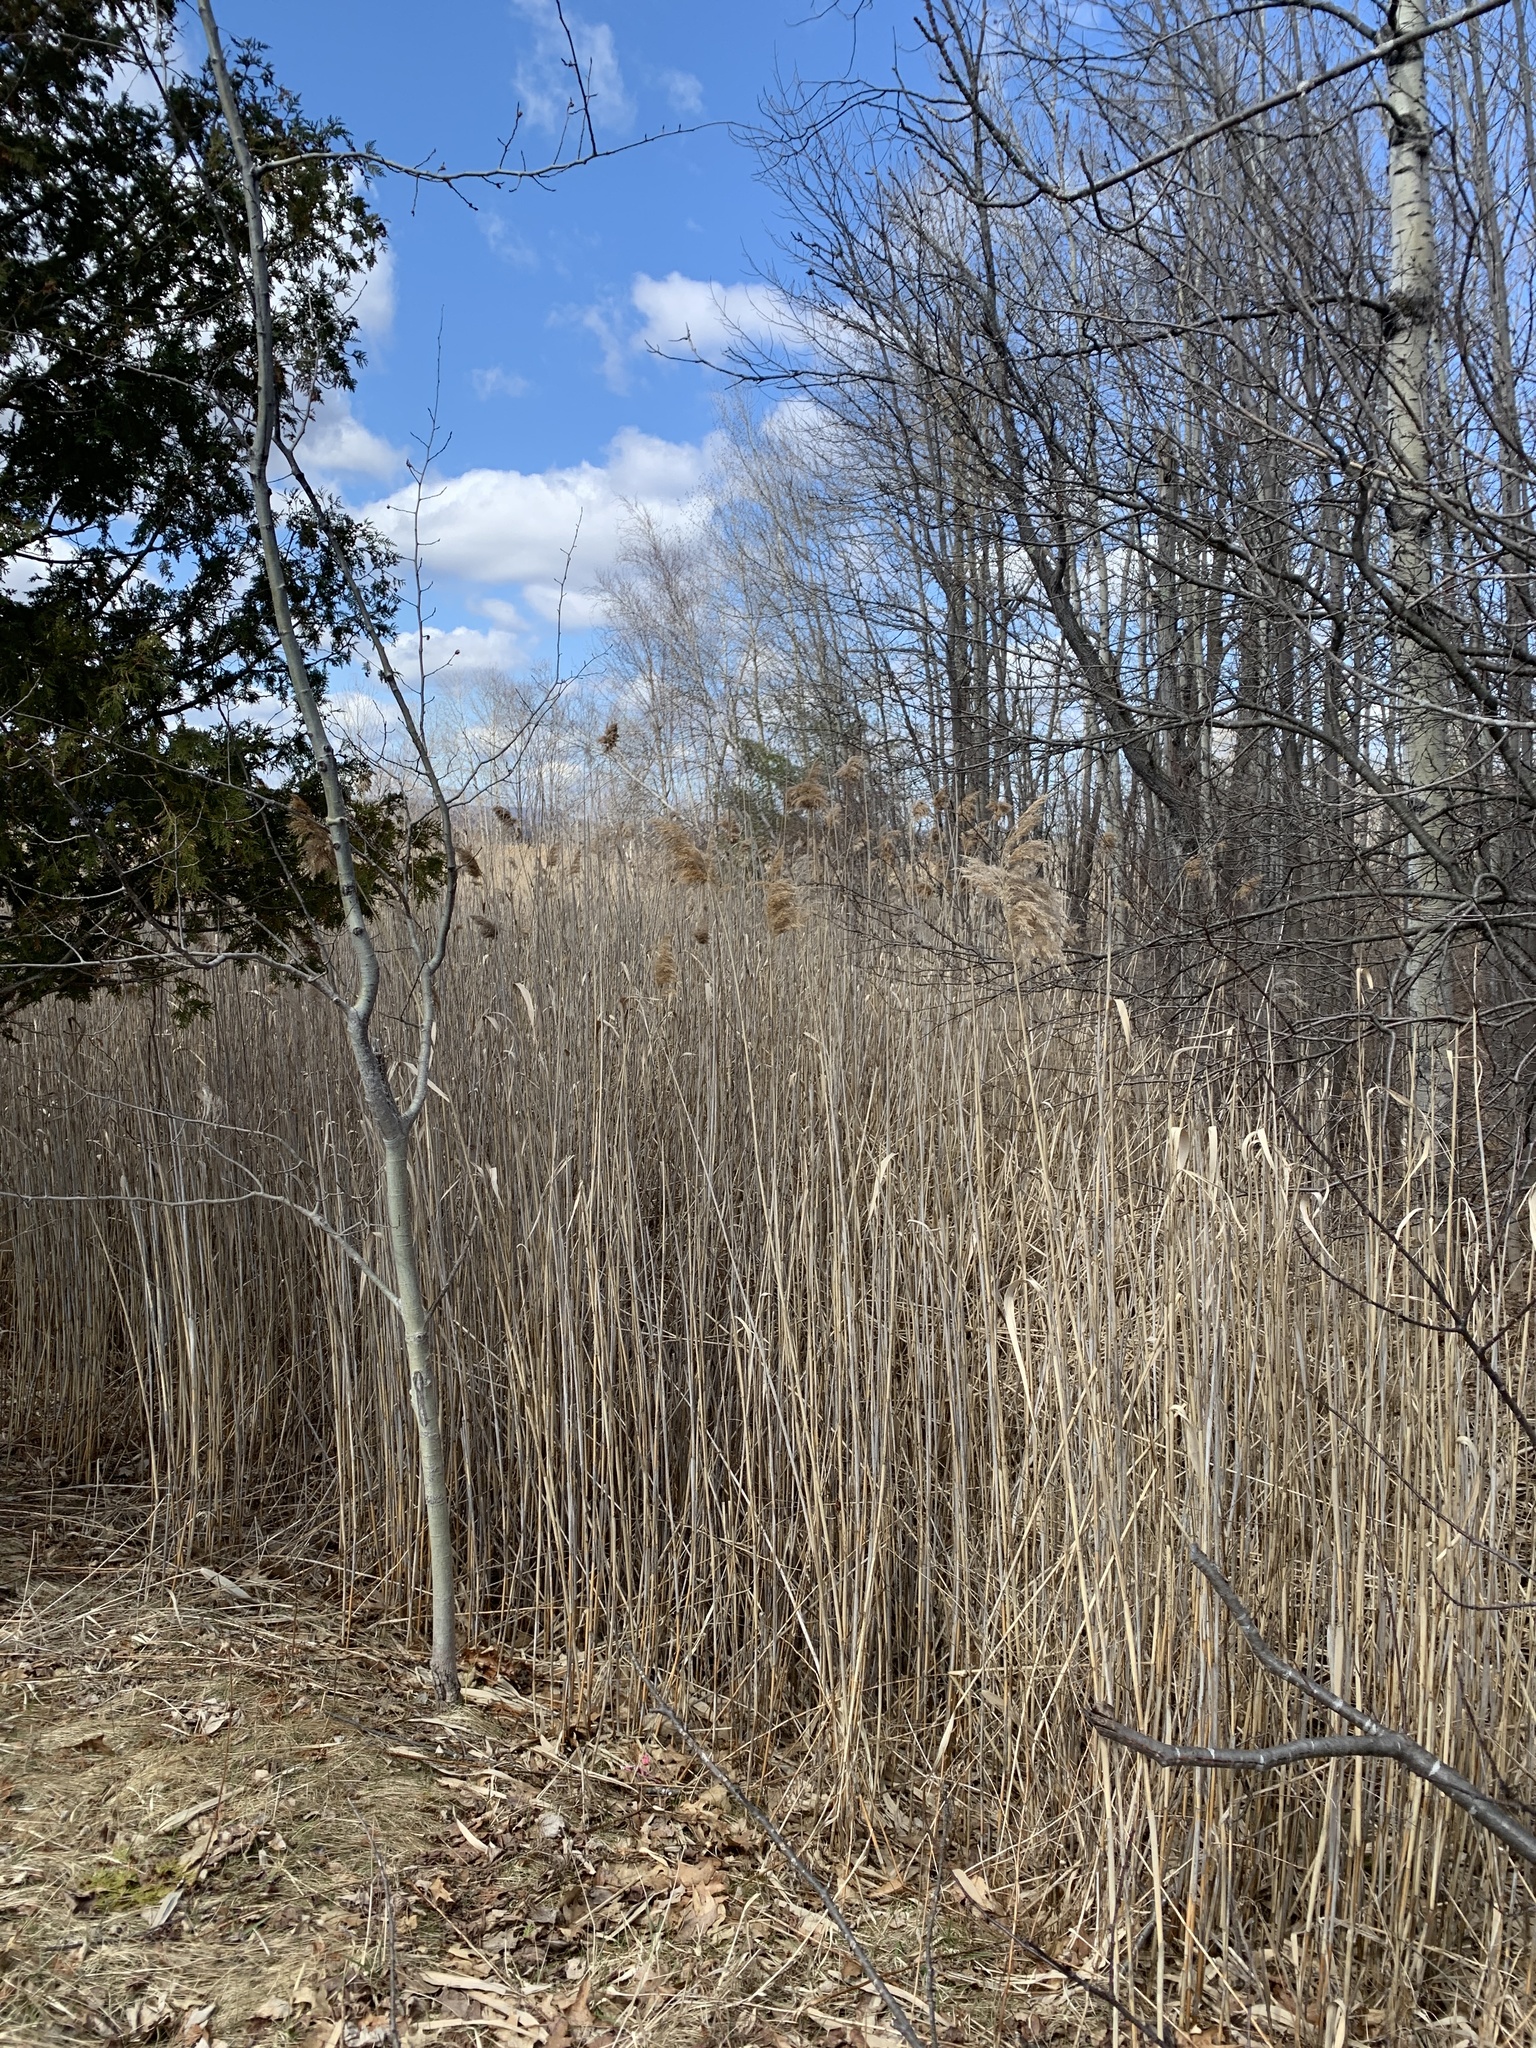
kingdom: Plantae
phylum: Tracheophyta
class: Liliopsida
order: Poales
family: Poaceae
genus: Phragmites
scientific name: Phragmites australis
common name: Common reed
